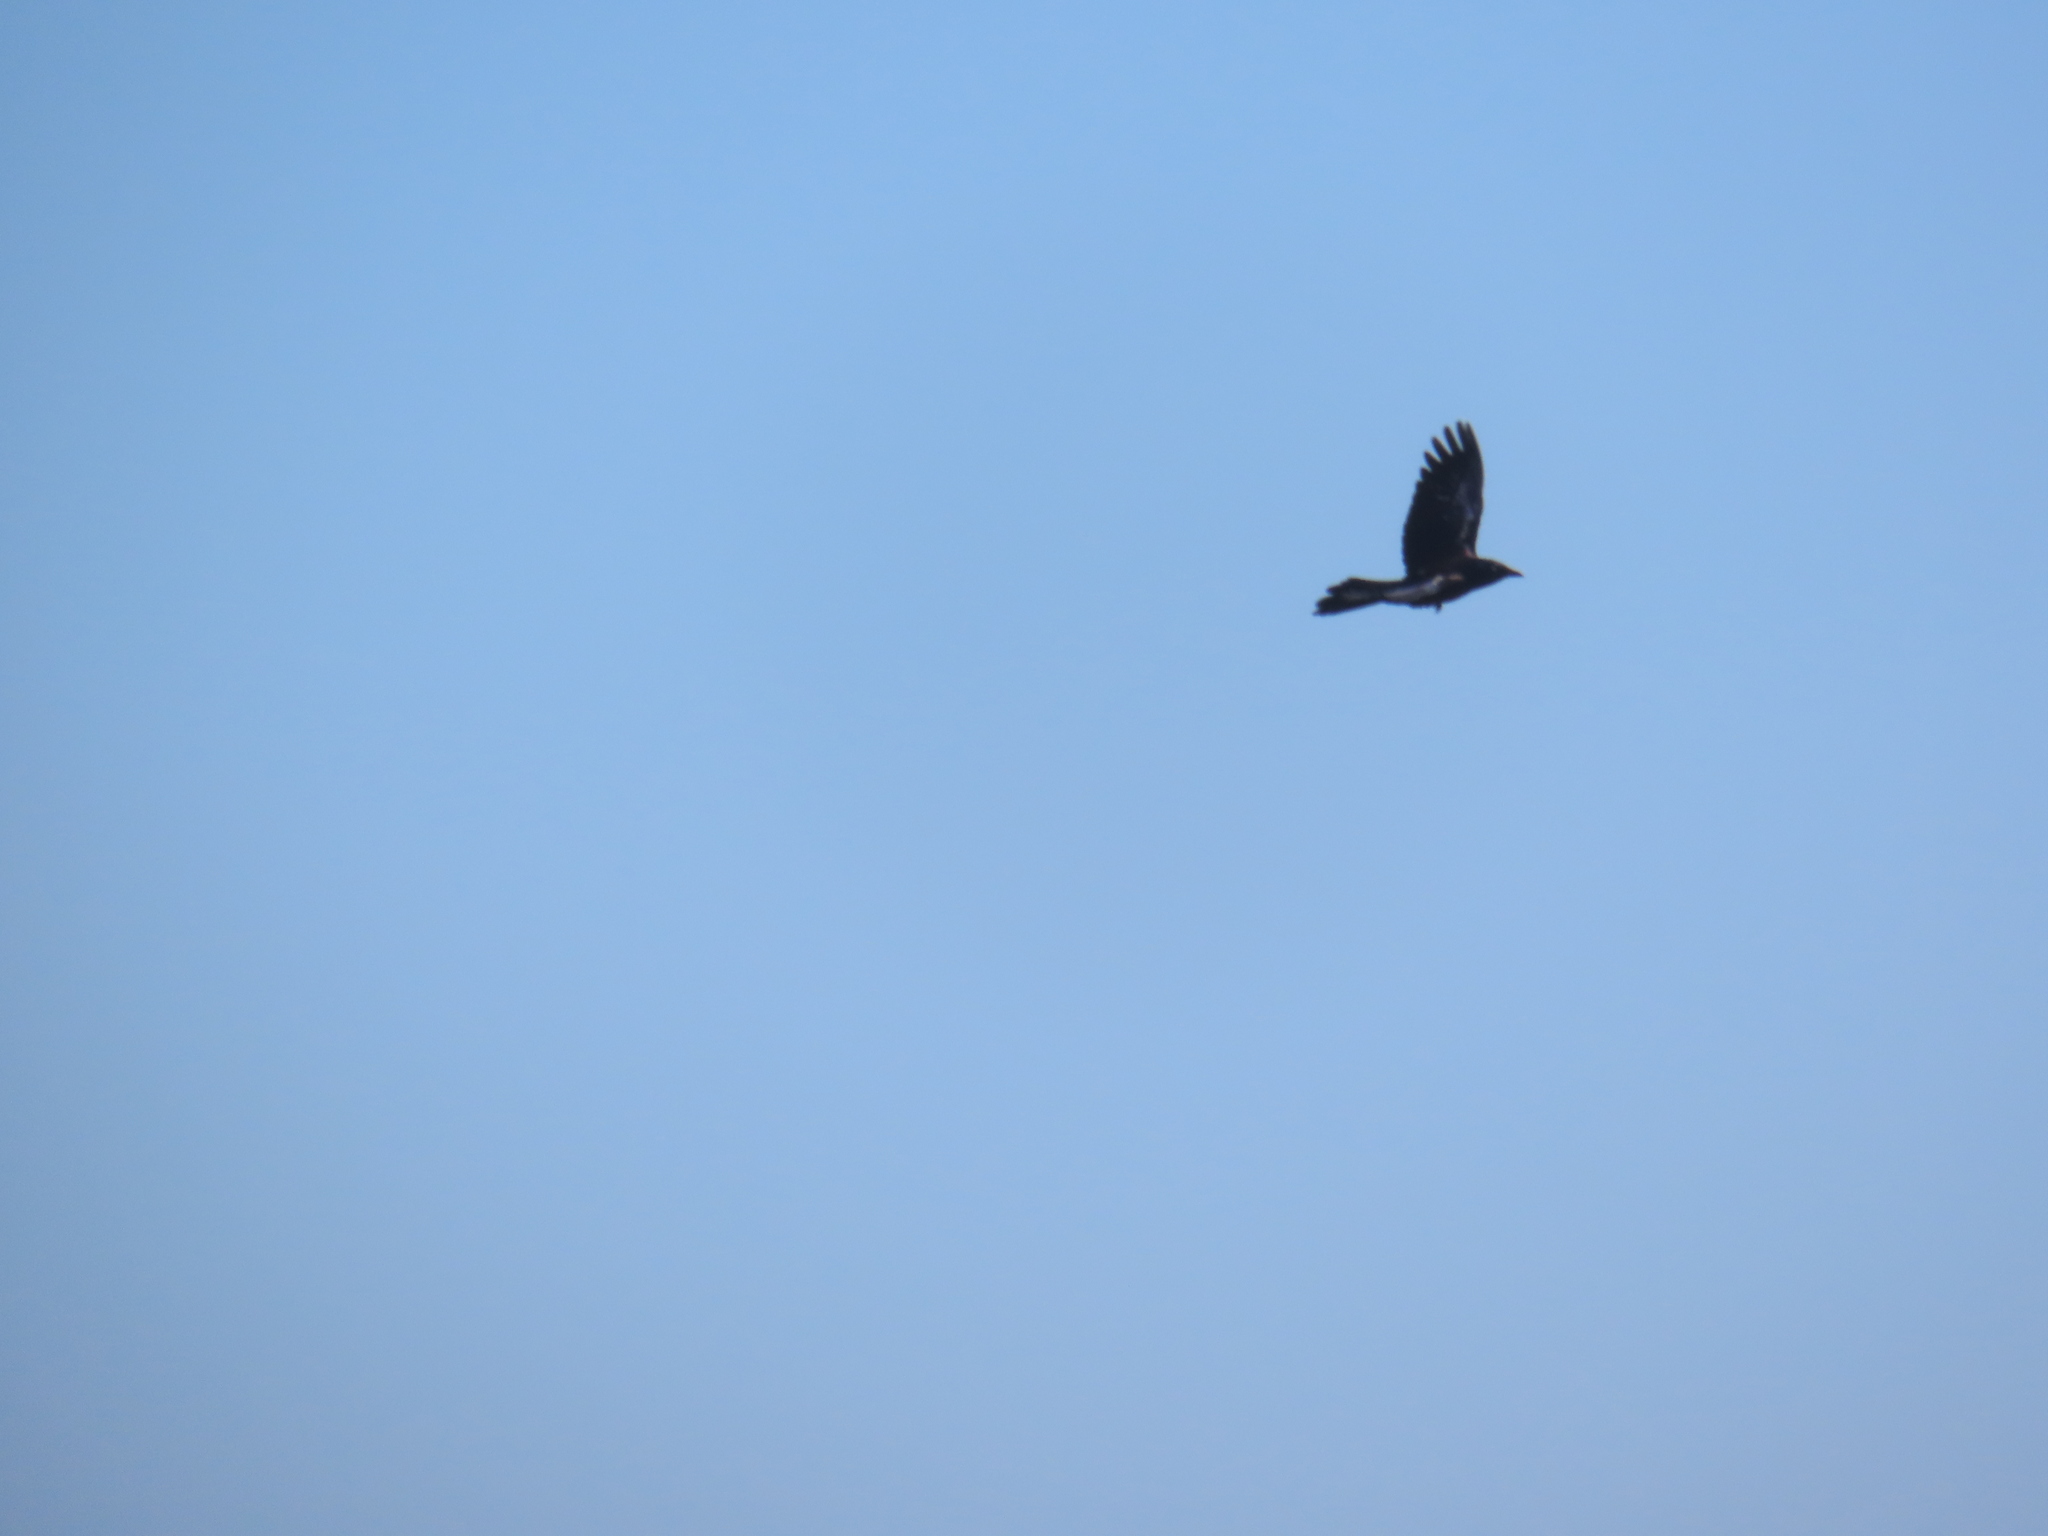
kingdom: Animalia
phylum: Chordata
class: Aves
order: Passeriformes
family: Icteridae
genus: Quiscalus
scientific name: Quiscalus quiscula
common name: Common grackle
